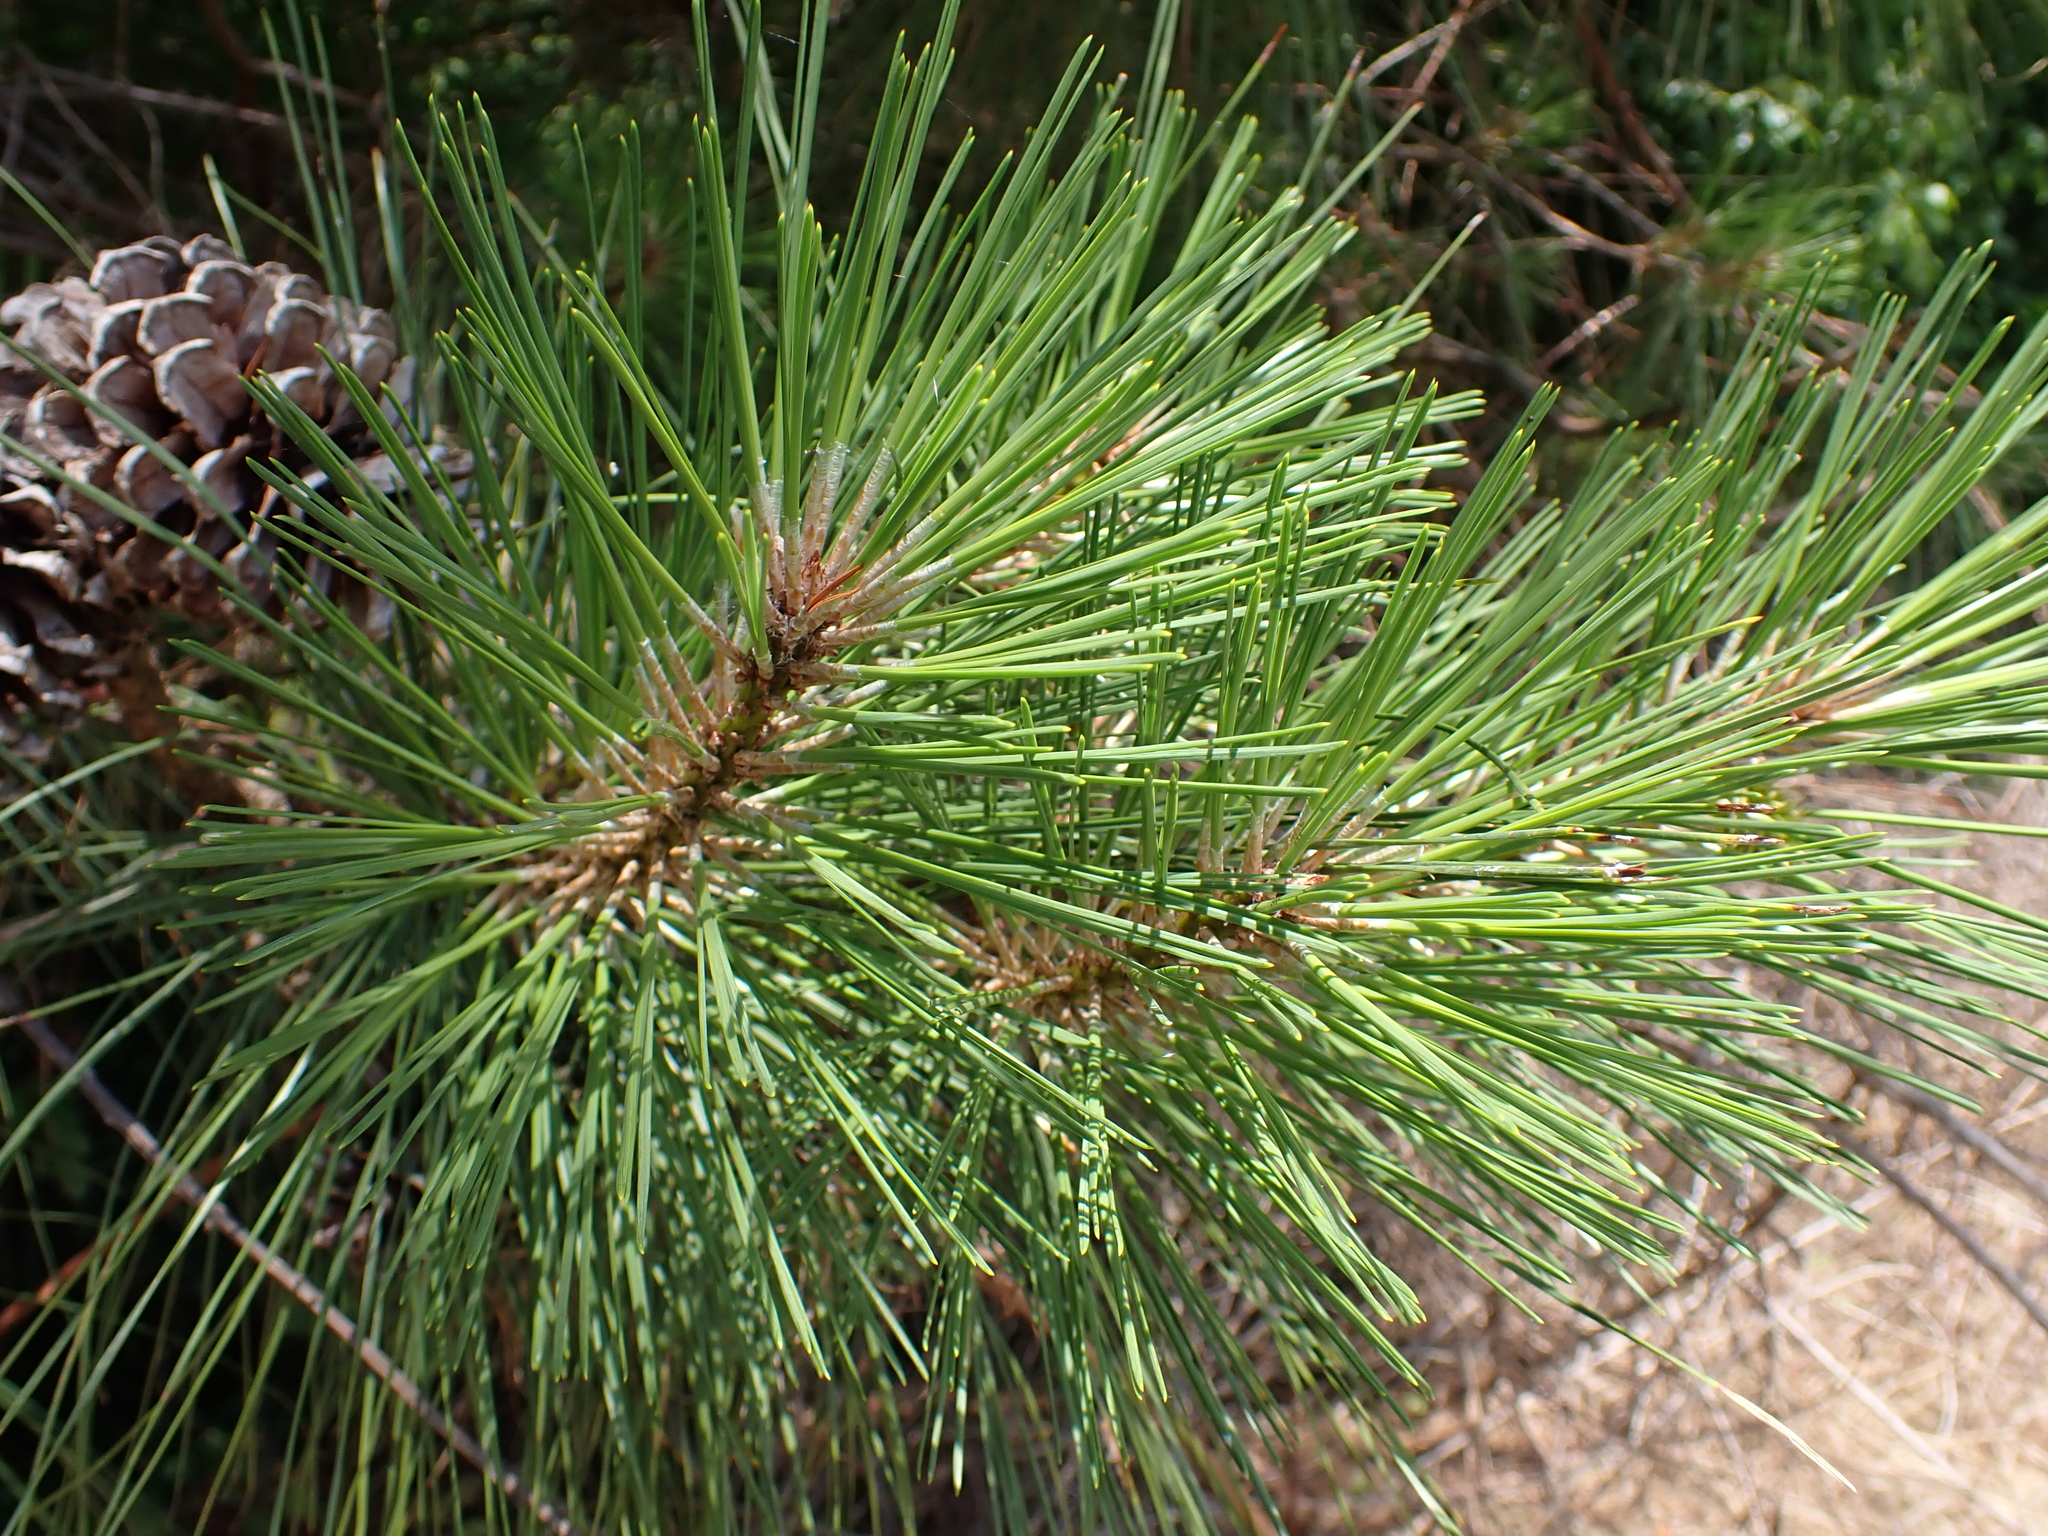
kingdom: Plantae
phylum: Tracheophyta
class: Pinopsida
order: Pinales
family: Pinaceae
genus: Pinus
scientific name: Pinus taeda
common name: Loblolly pine
